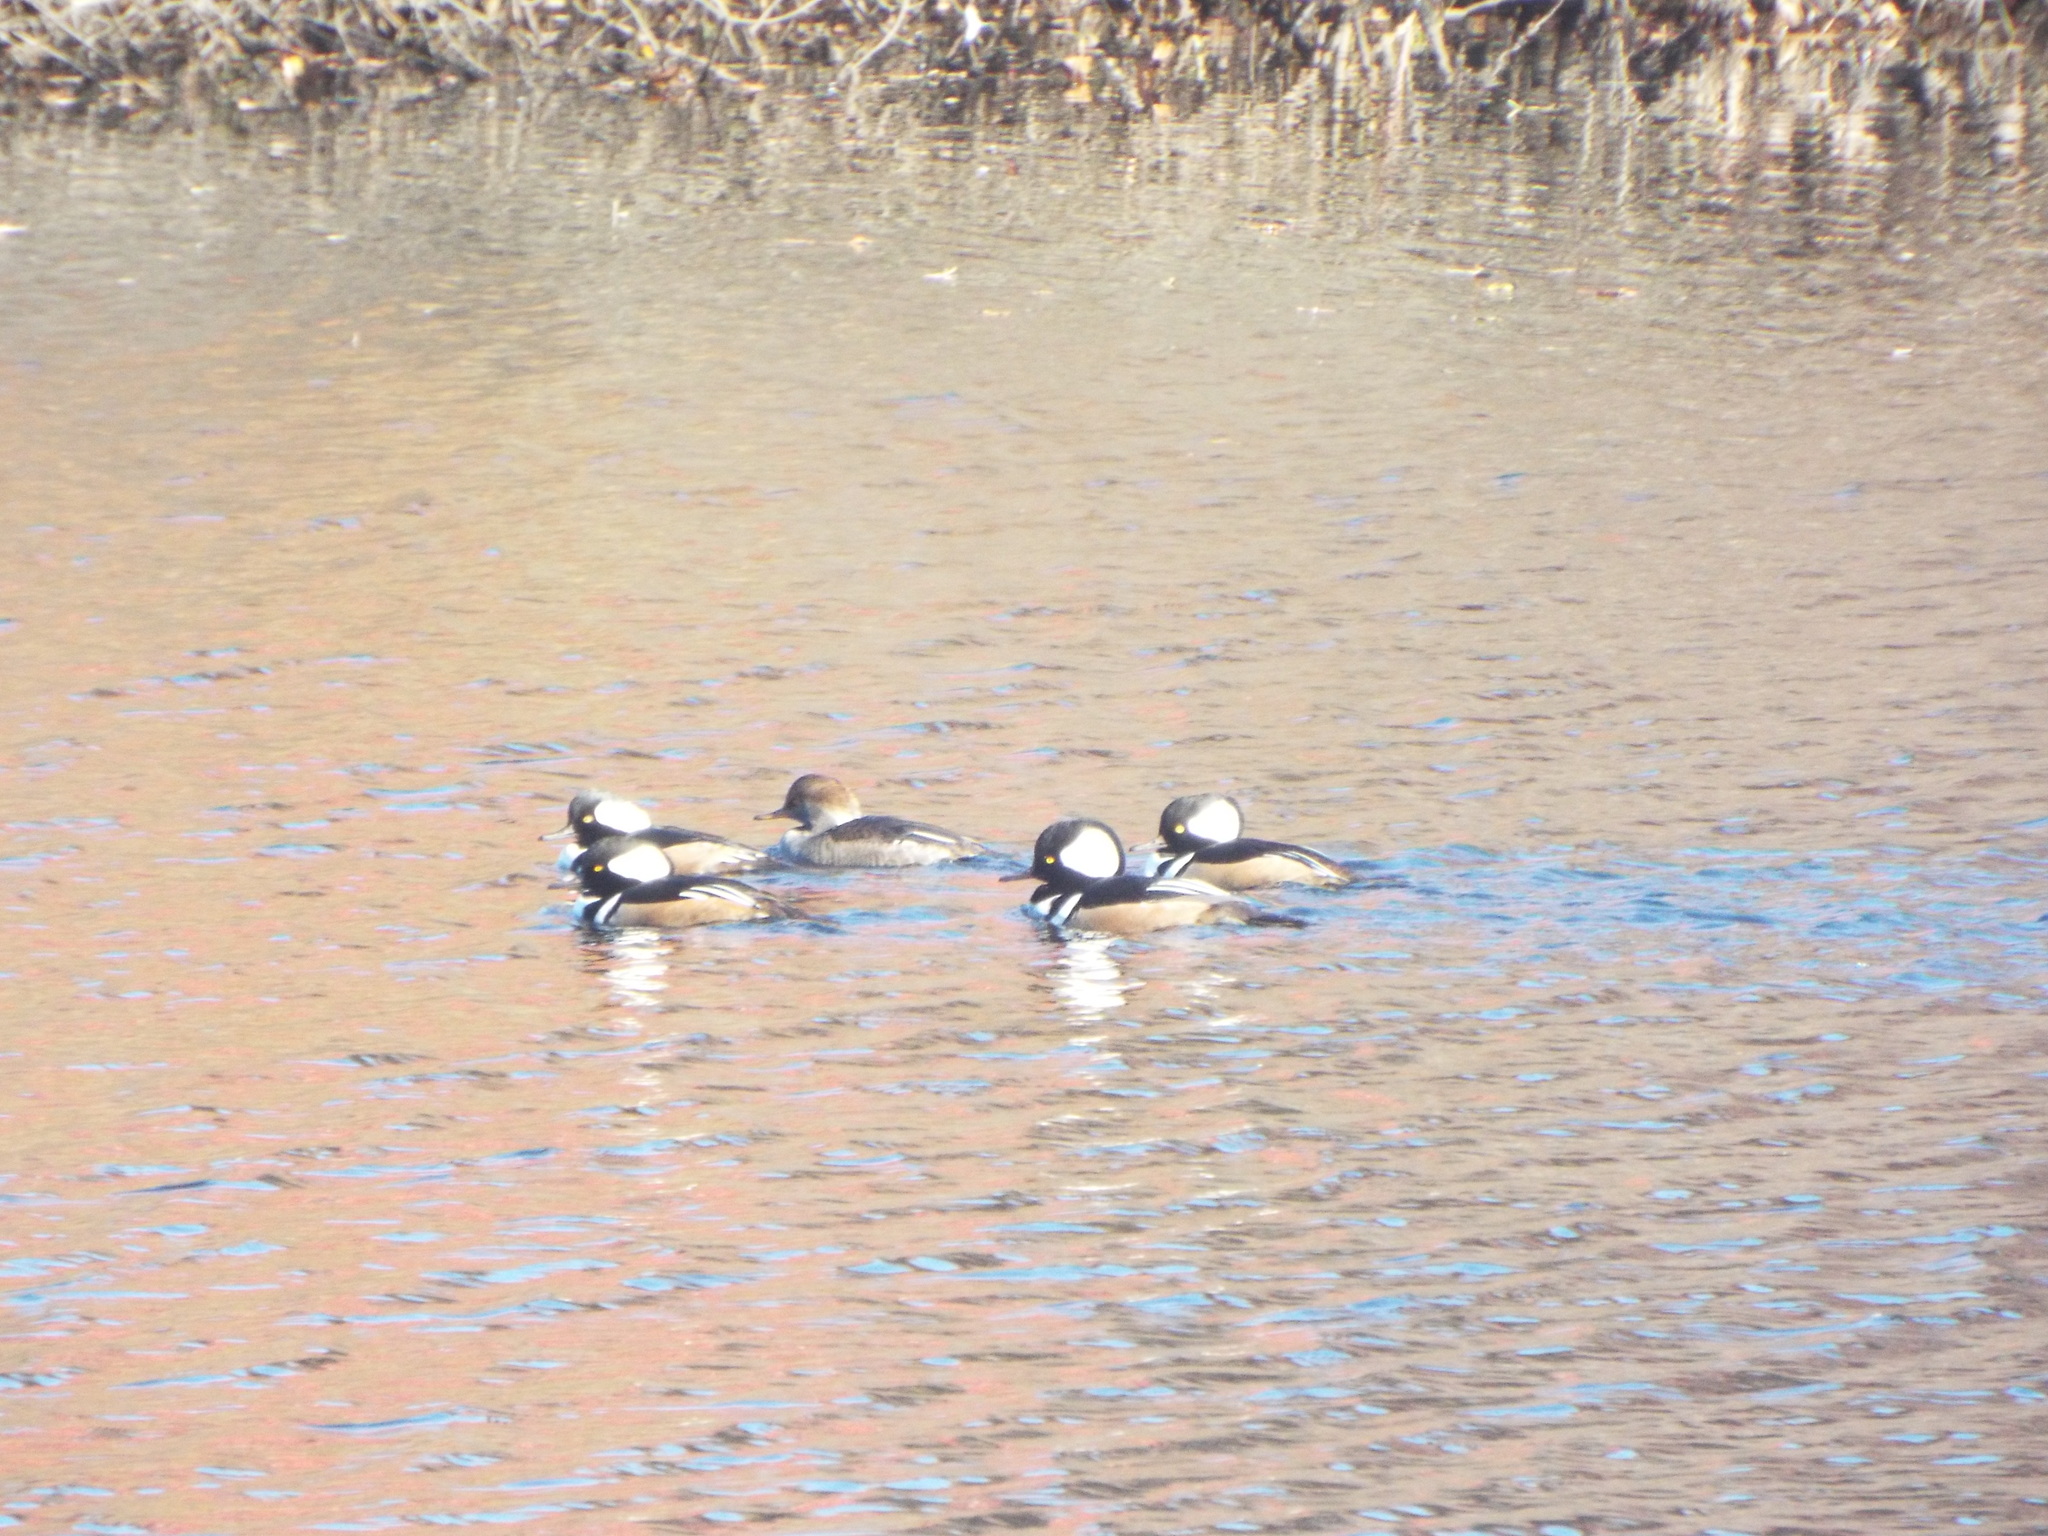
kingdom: Animalia
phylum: Chordata
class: Aves
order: Anseriformes
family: Anatidae
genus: Lophodytes
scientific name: Lophodytes cucullatus
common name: Hooded merganser
